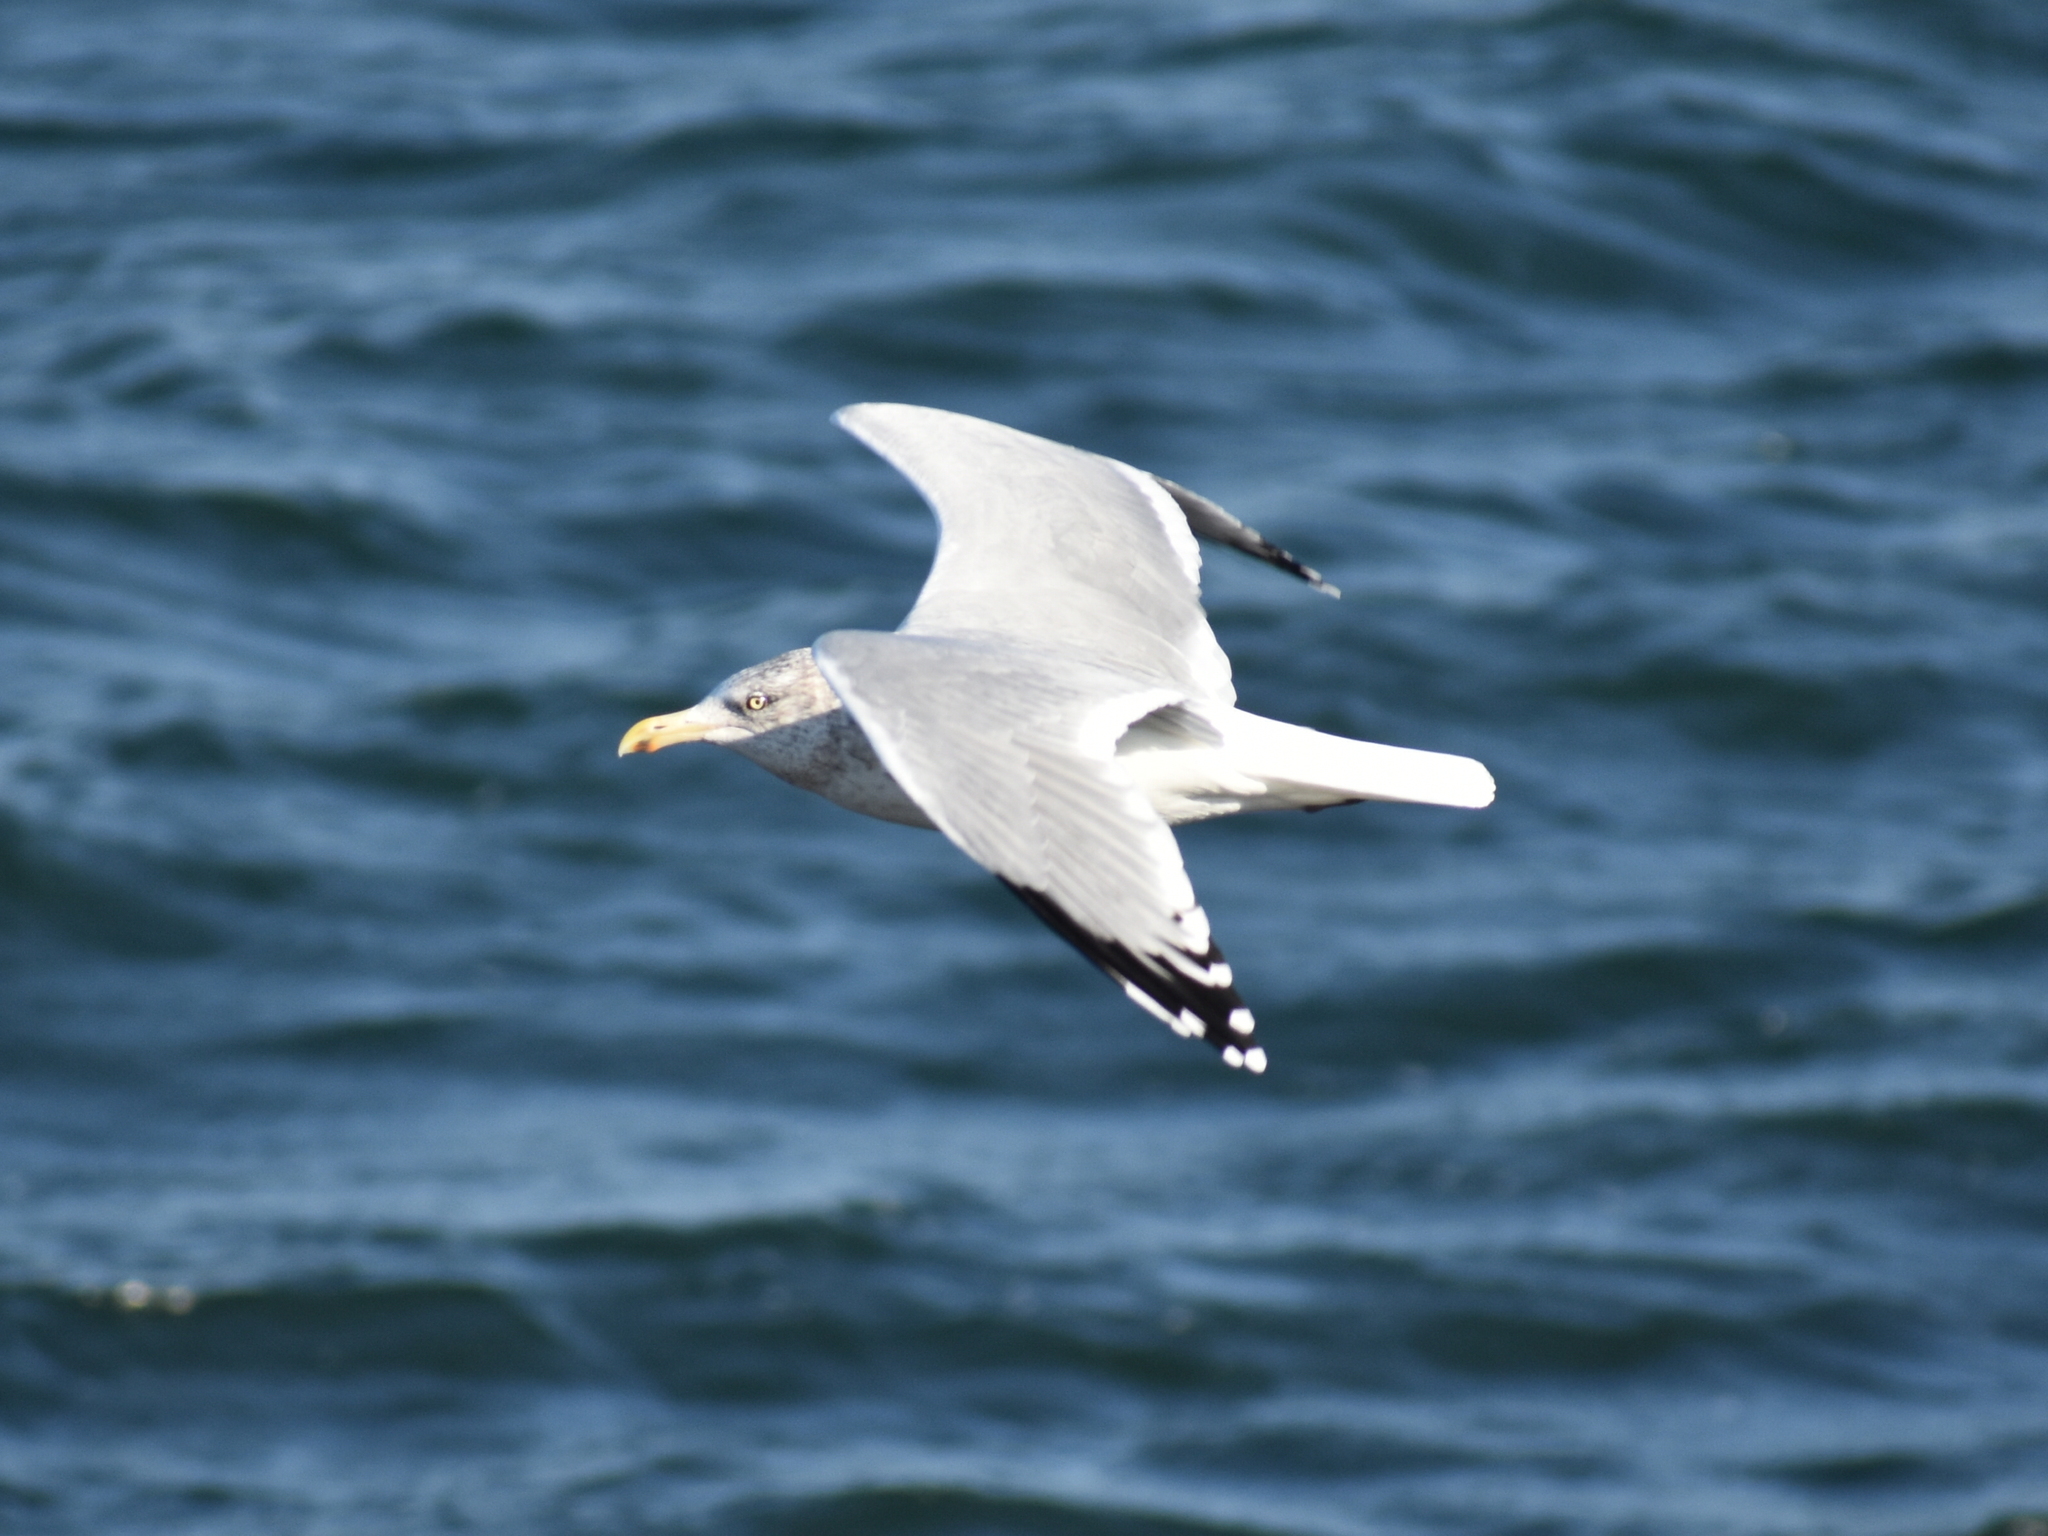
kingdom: Animalia
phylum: Chordata
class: Aves
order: Charadriiformes
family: Laridae
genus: Larus
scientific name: Larus argentatus
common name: Herring gull
